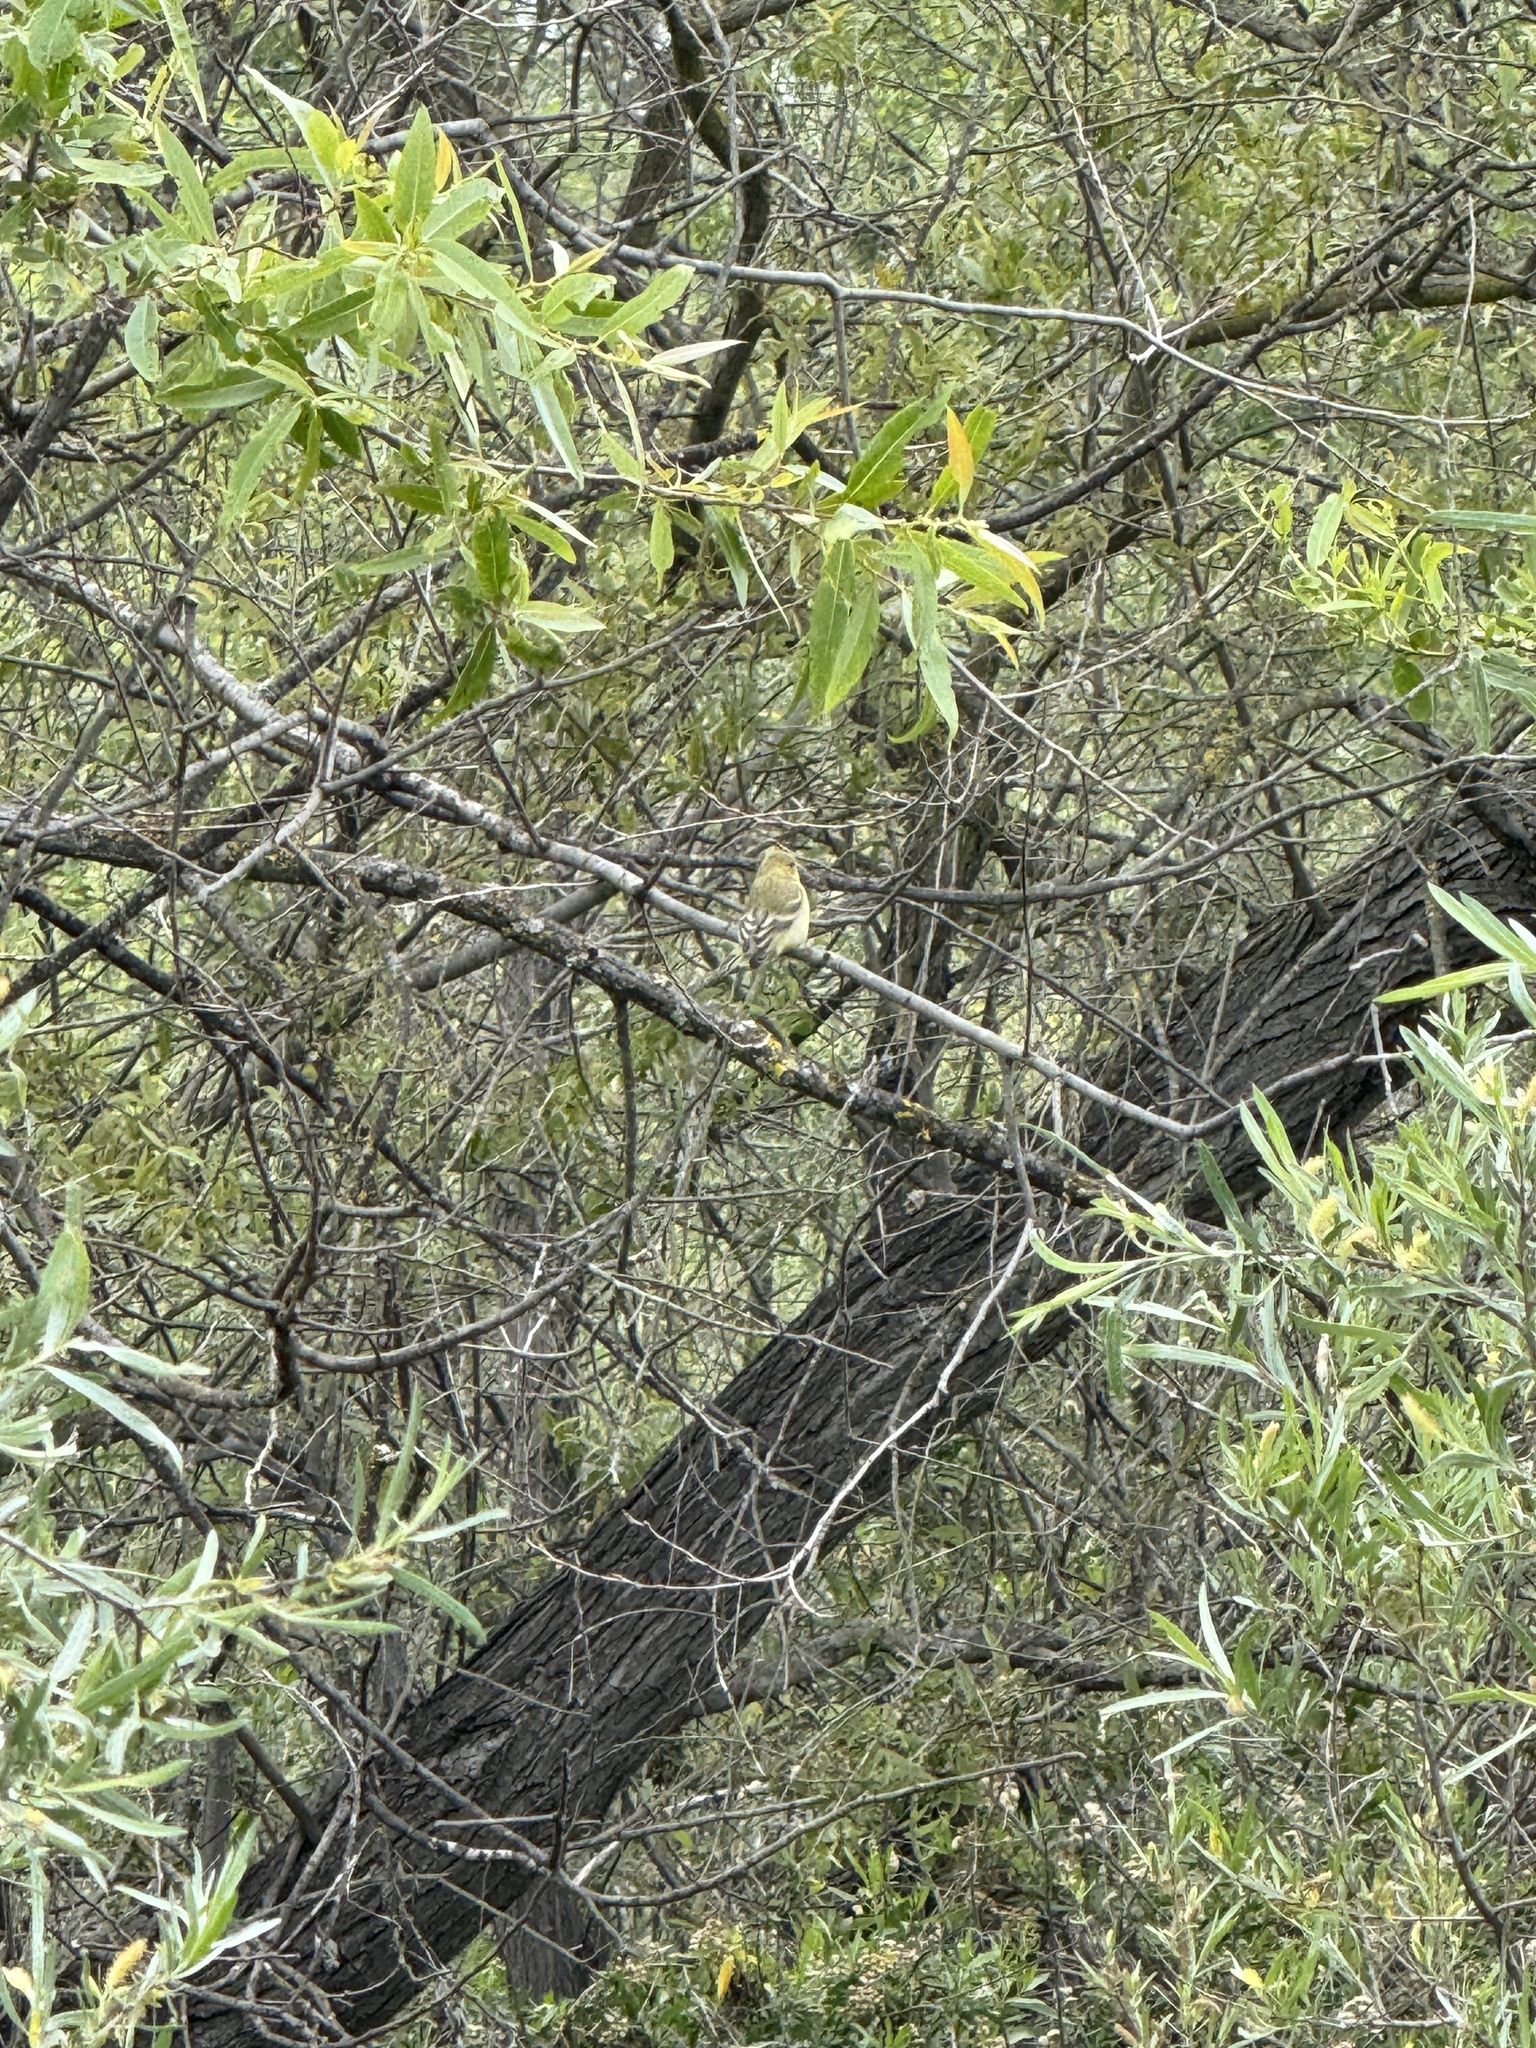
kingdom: Animalia
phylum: Chordata
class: Aves
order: Passeriformes
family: Fringillidae
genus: Spinus
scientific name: Spinus psaltria
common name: Lesser goldfinch
